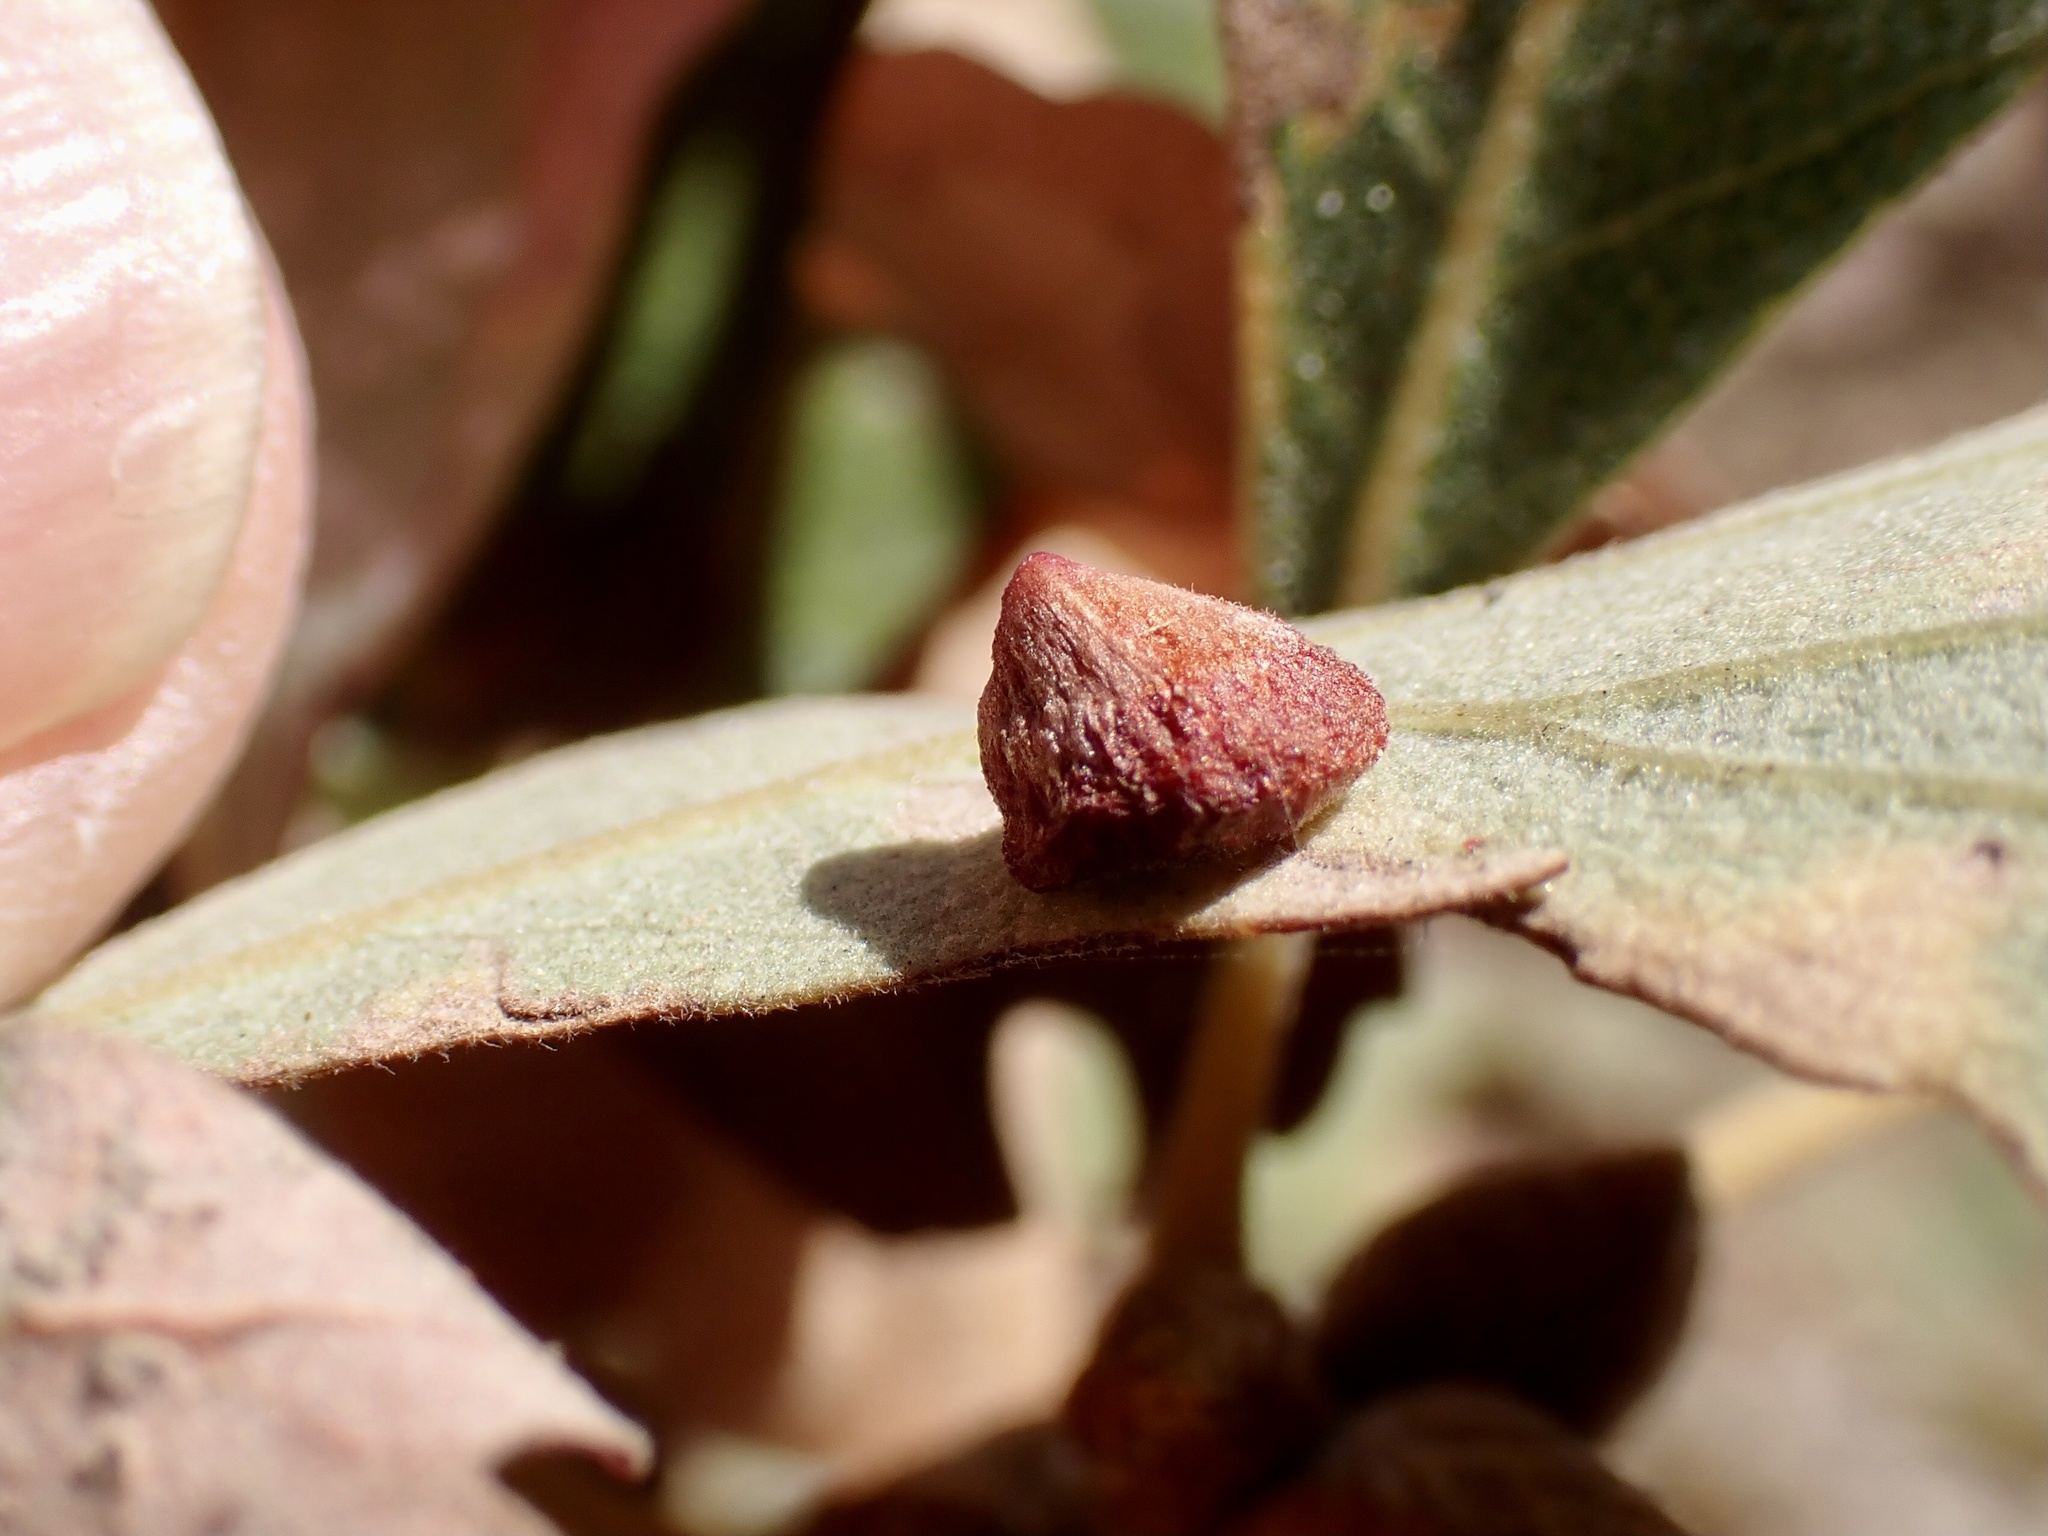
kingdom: Animalia
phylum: Arthropoda
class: Insecta
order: Hymenoptera
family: Cynipidae
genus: Andricus
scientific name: Andricus
